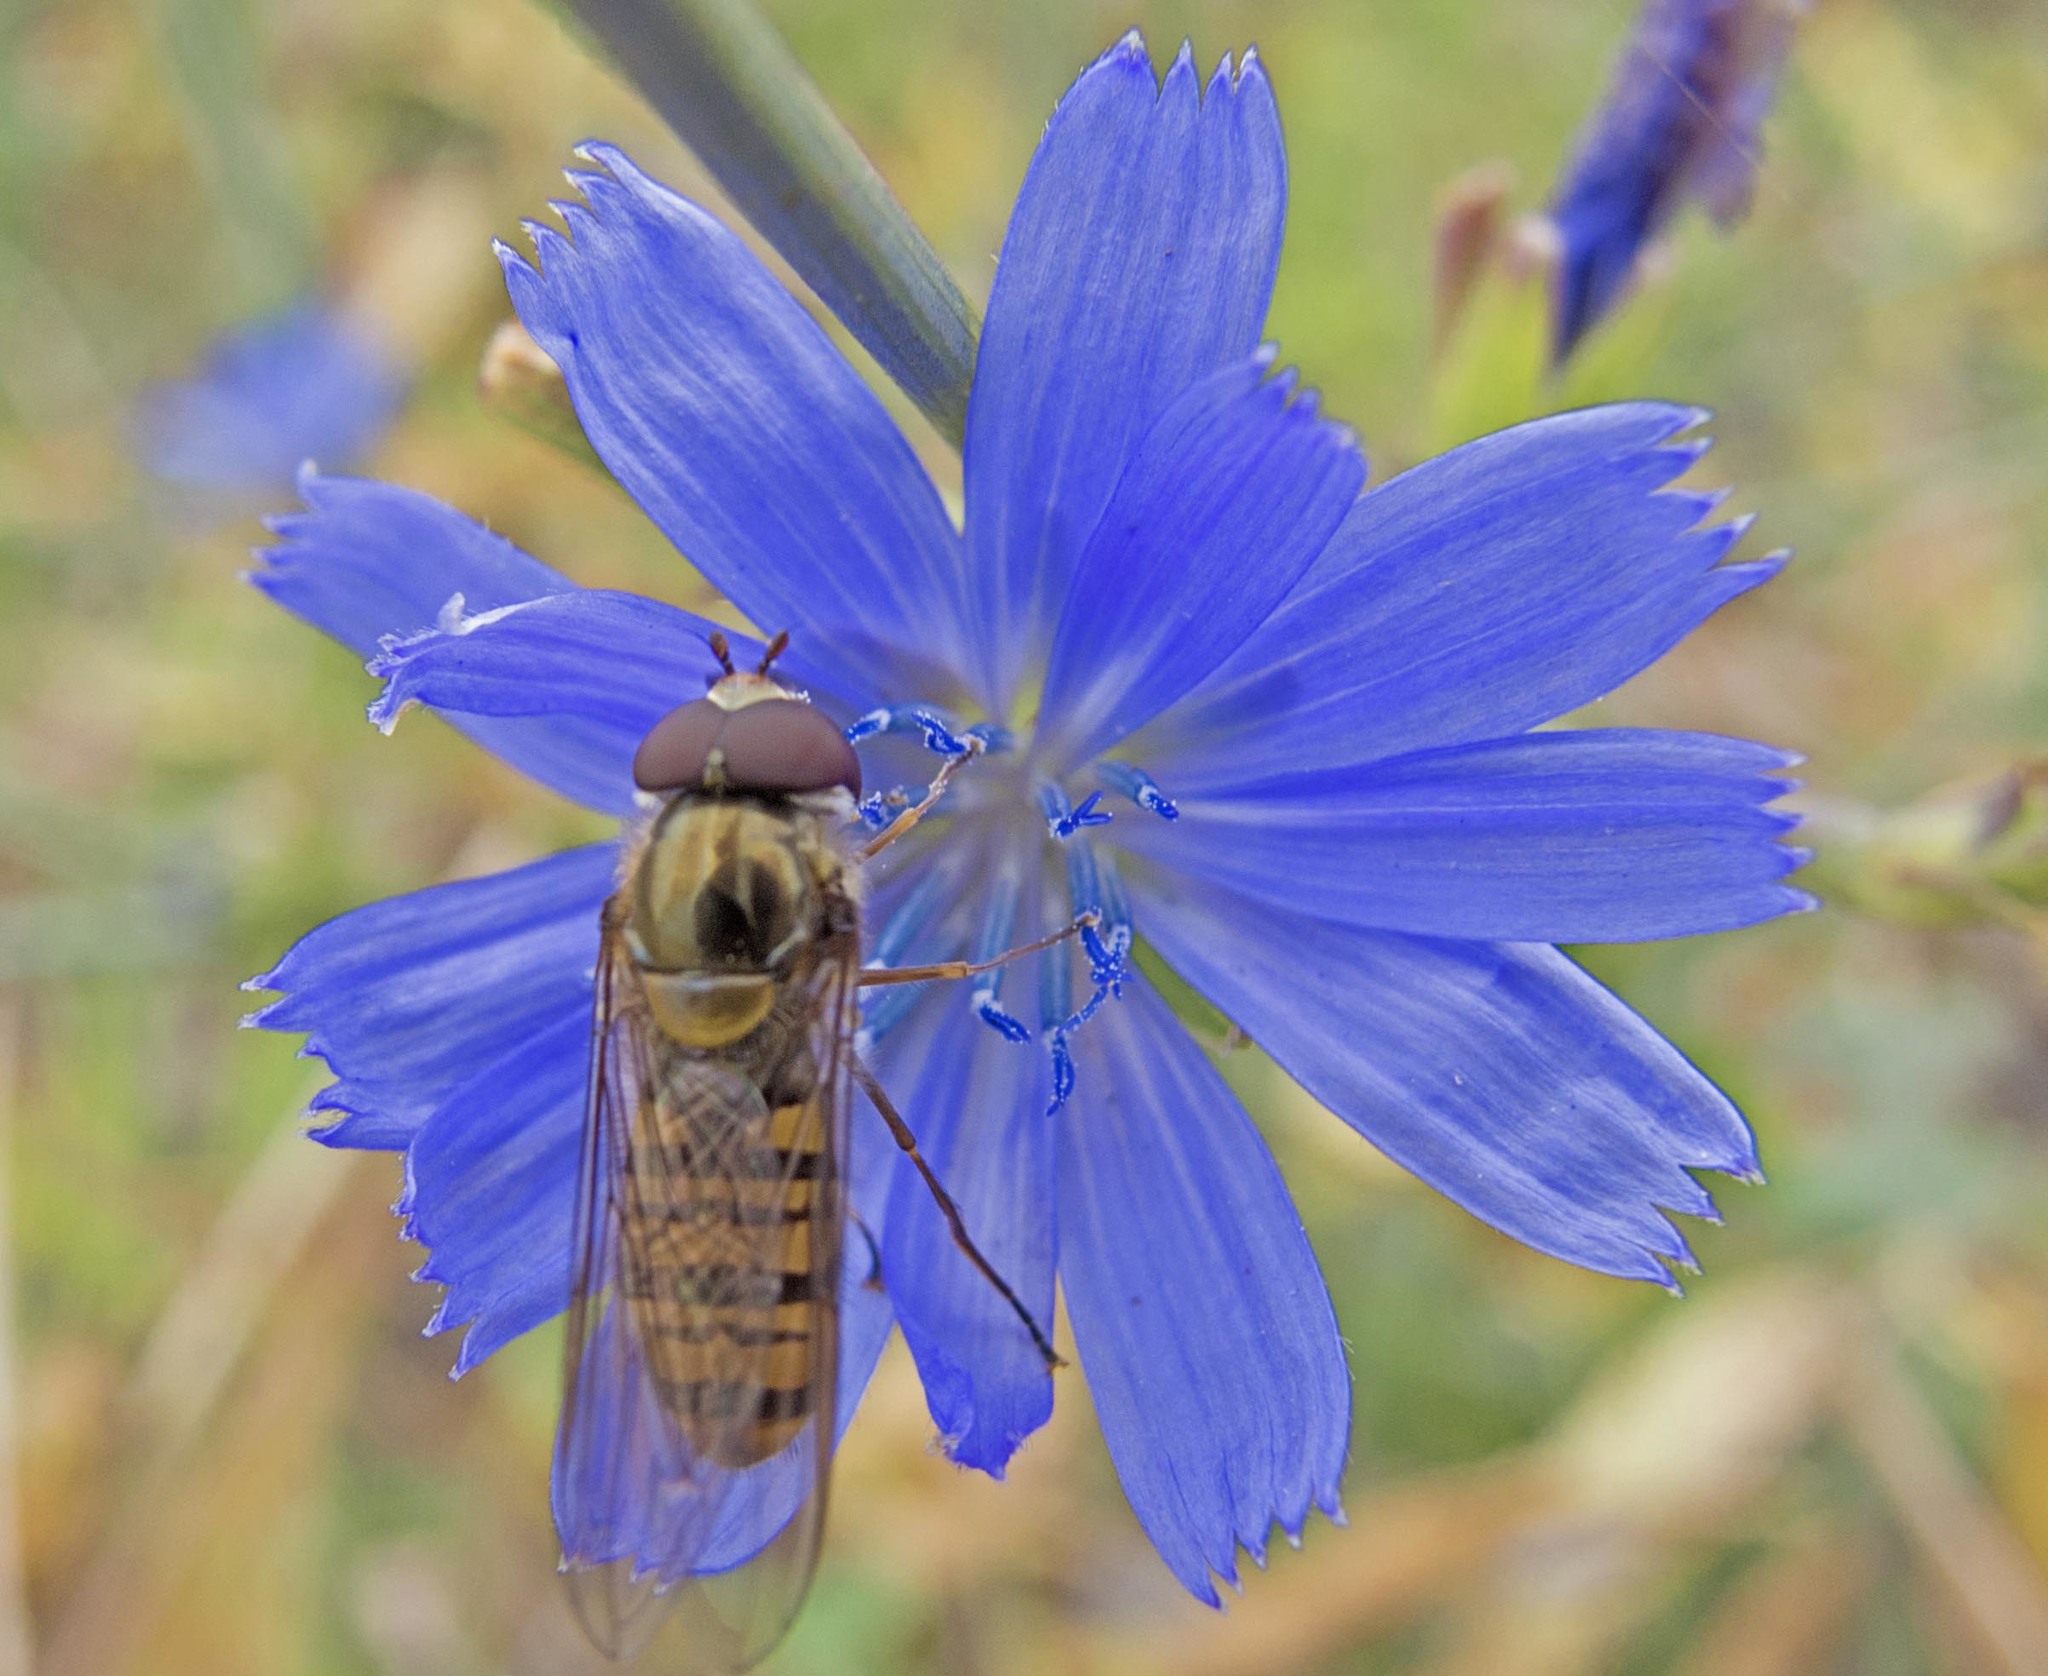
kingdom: Animalia
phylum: Arthropoda
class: Insecta
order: Diptera
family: Syrphidae
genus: Episyrphus
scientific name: Episyrphus balteatus
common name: Marmalade hoverfly
